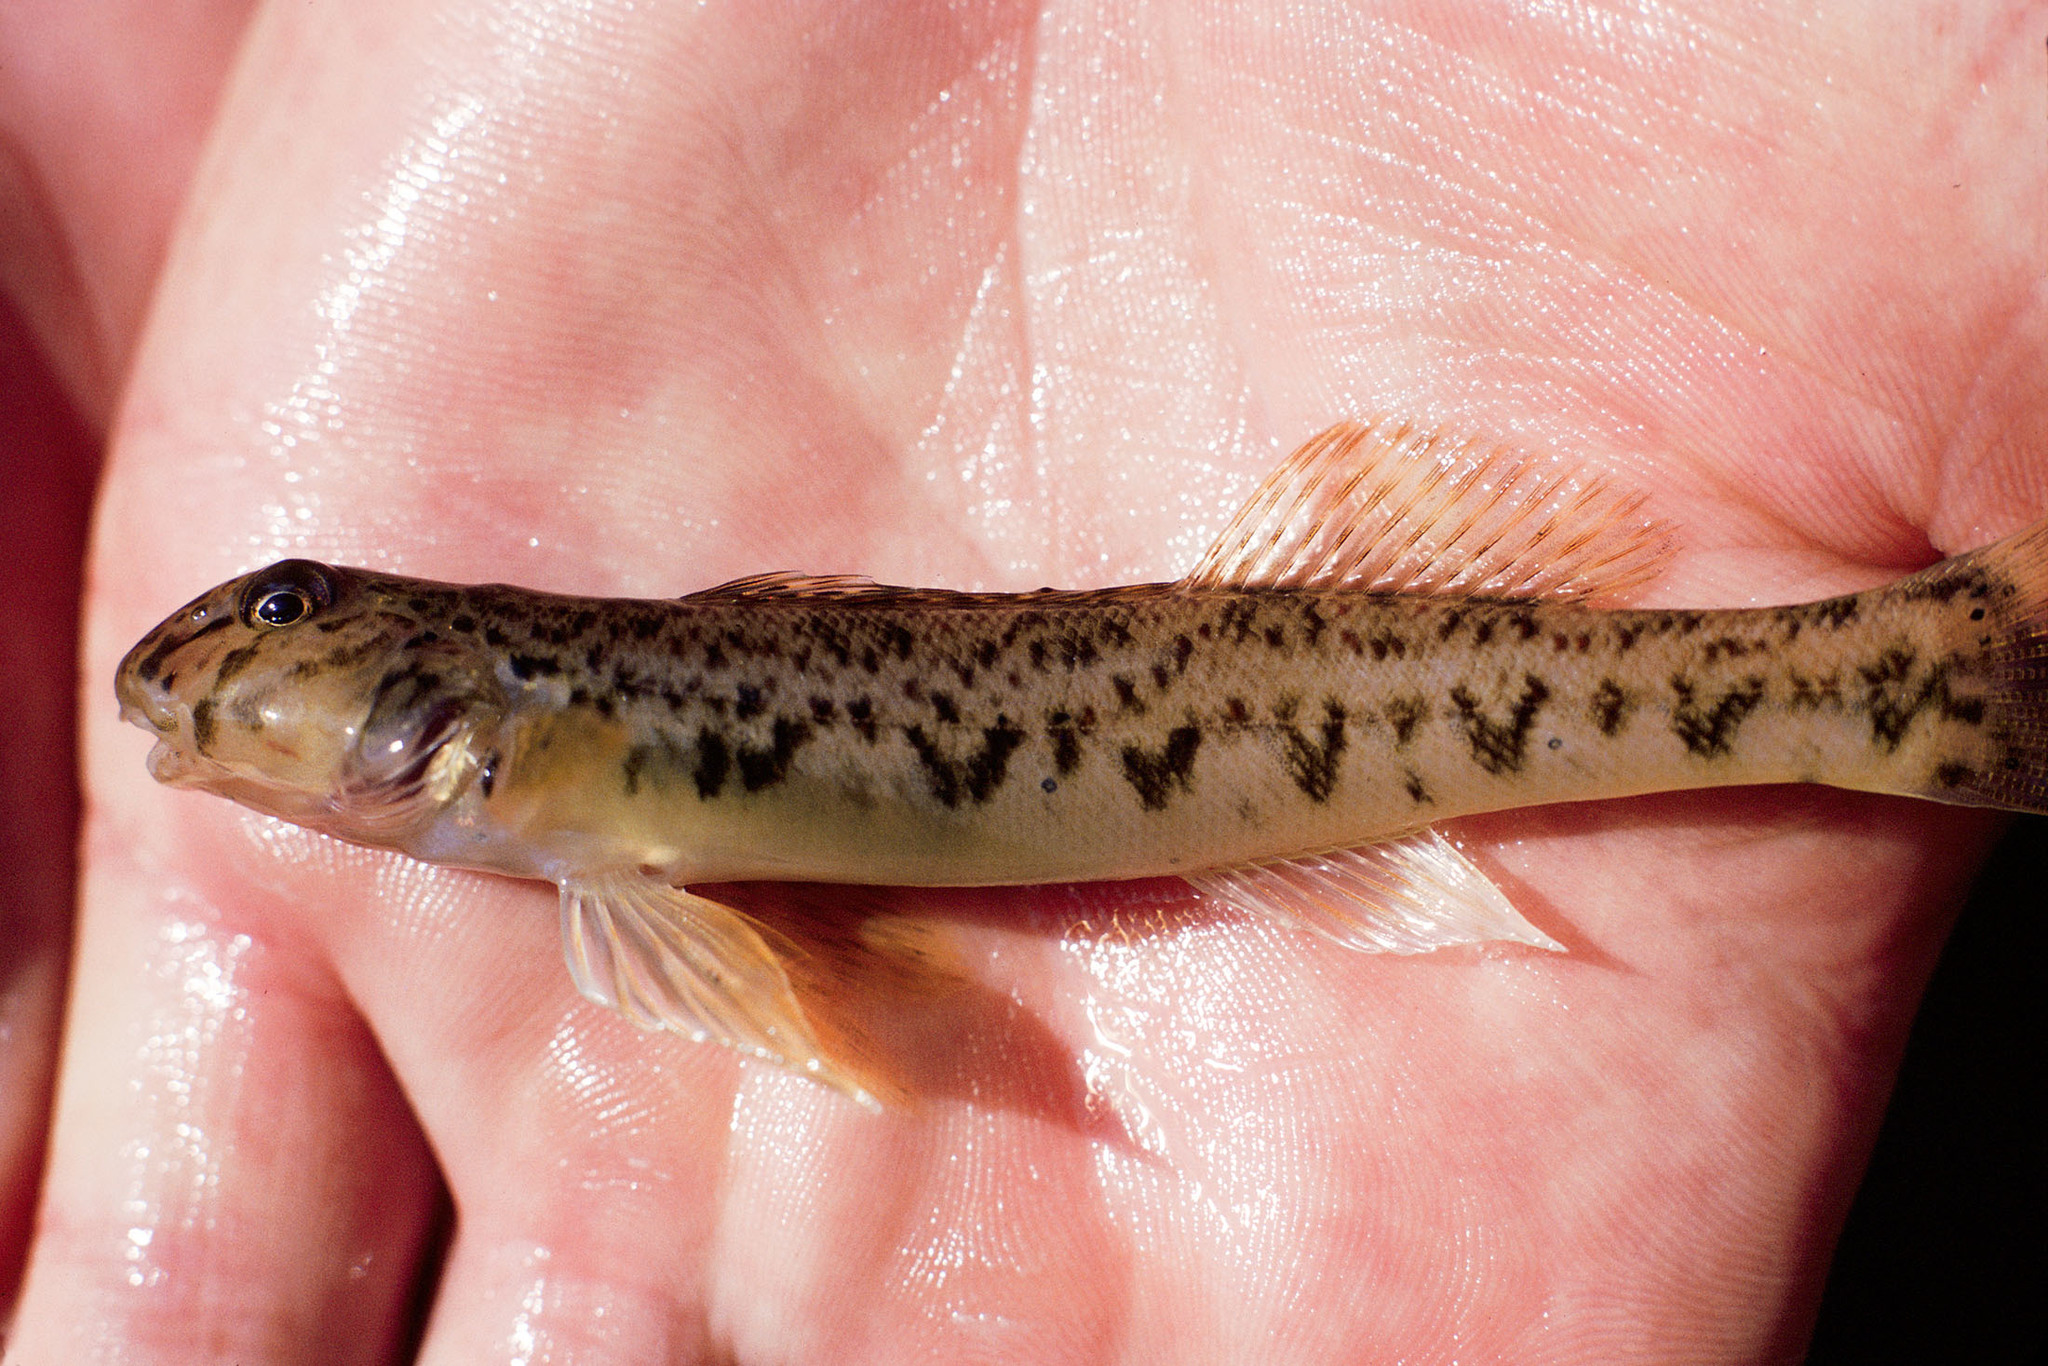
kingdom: Animalia
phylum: Chordata
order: Perciformes
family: Percidae
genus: Etheostoma
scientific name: Etheostoma blennioides
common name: Greenside darter
